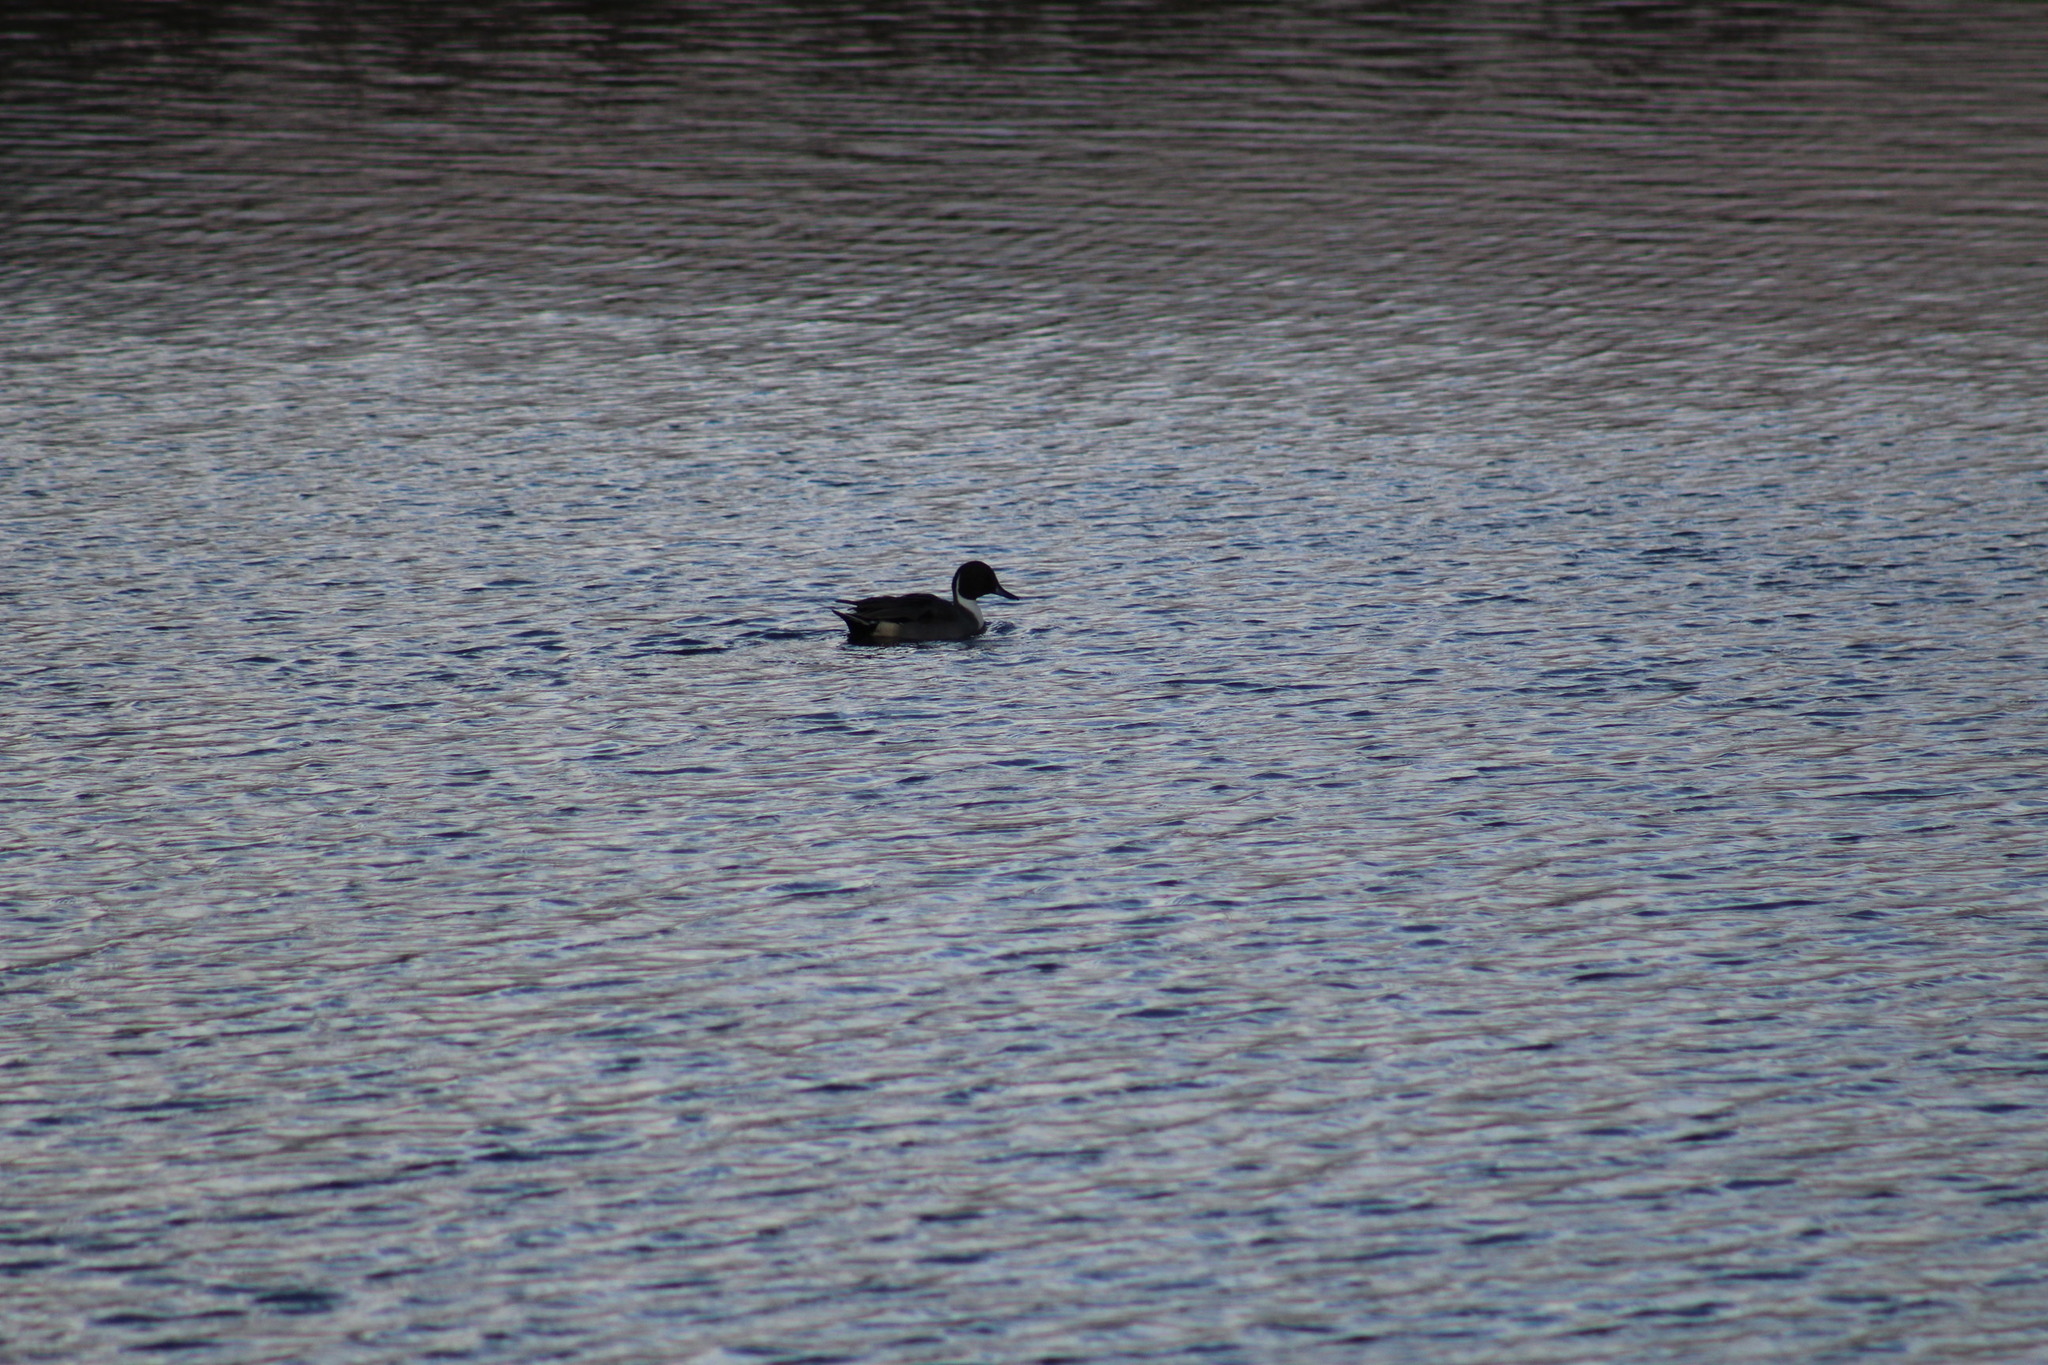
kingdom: Animalia
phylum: Chordata
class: Aves
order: Anseriformes
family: Anatidae
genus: Anas
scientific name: Anas acuta
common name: Northern pintail
